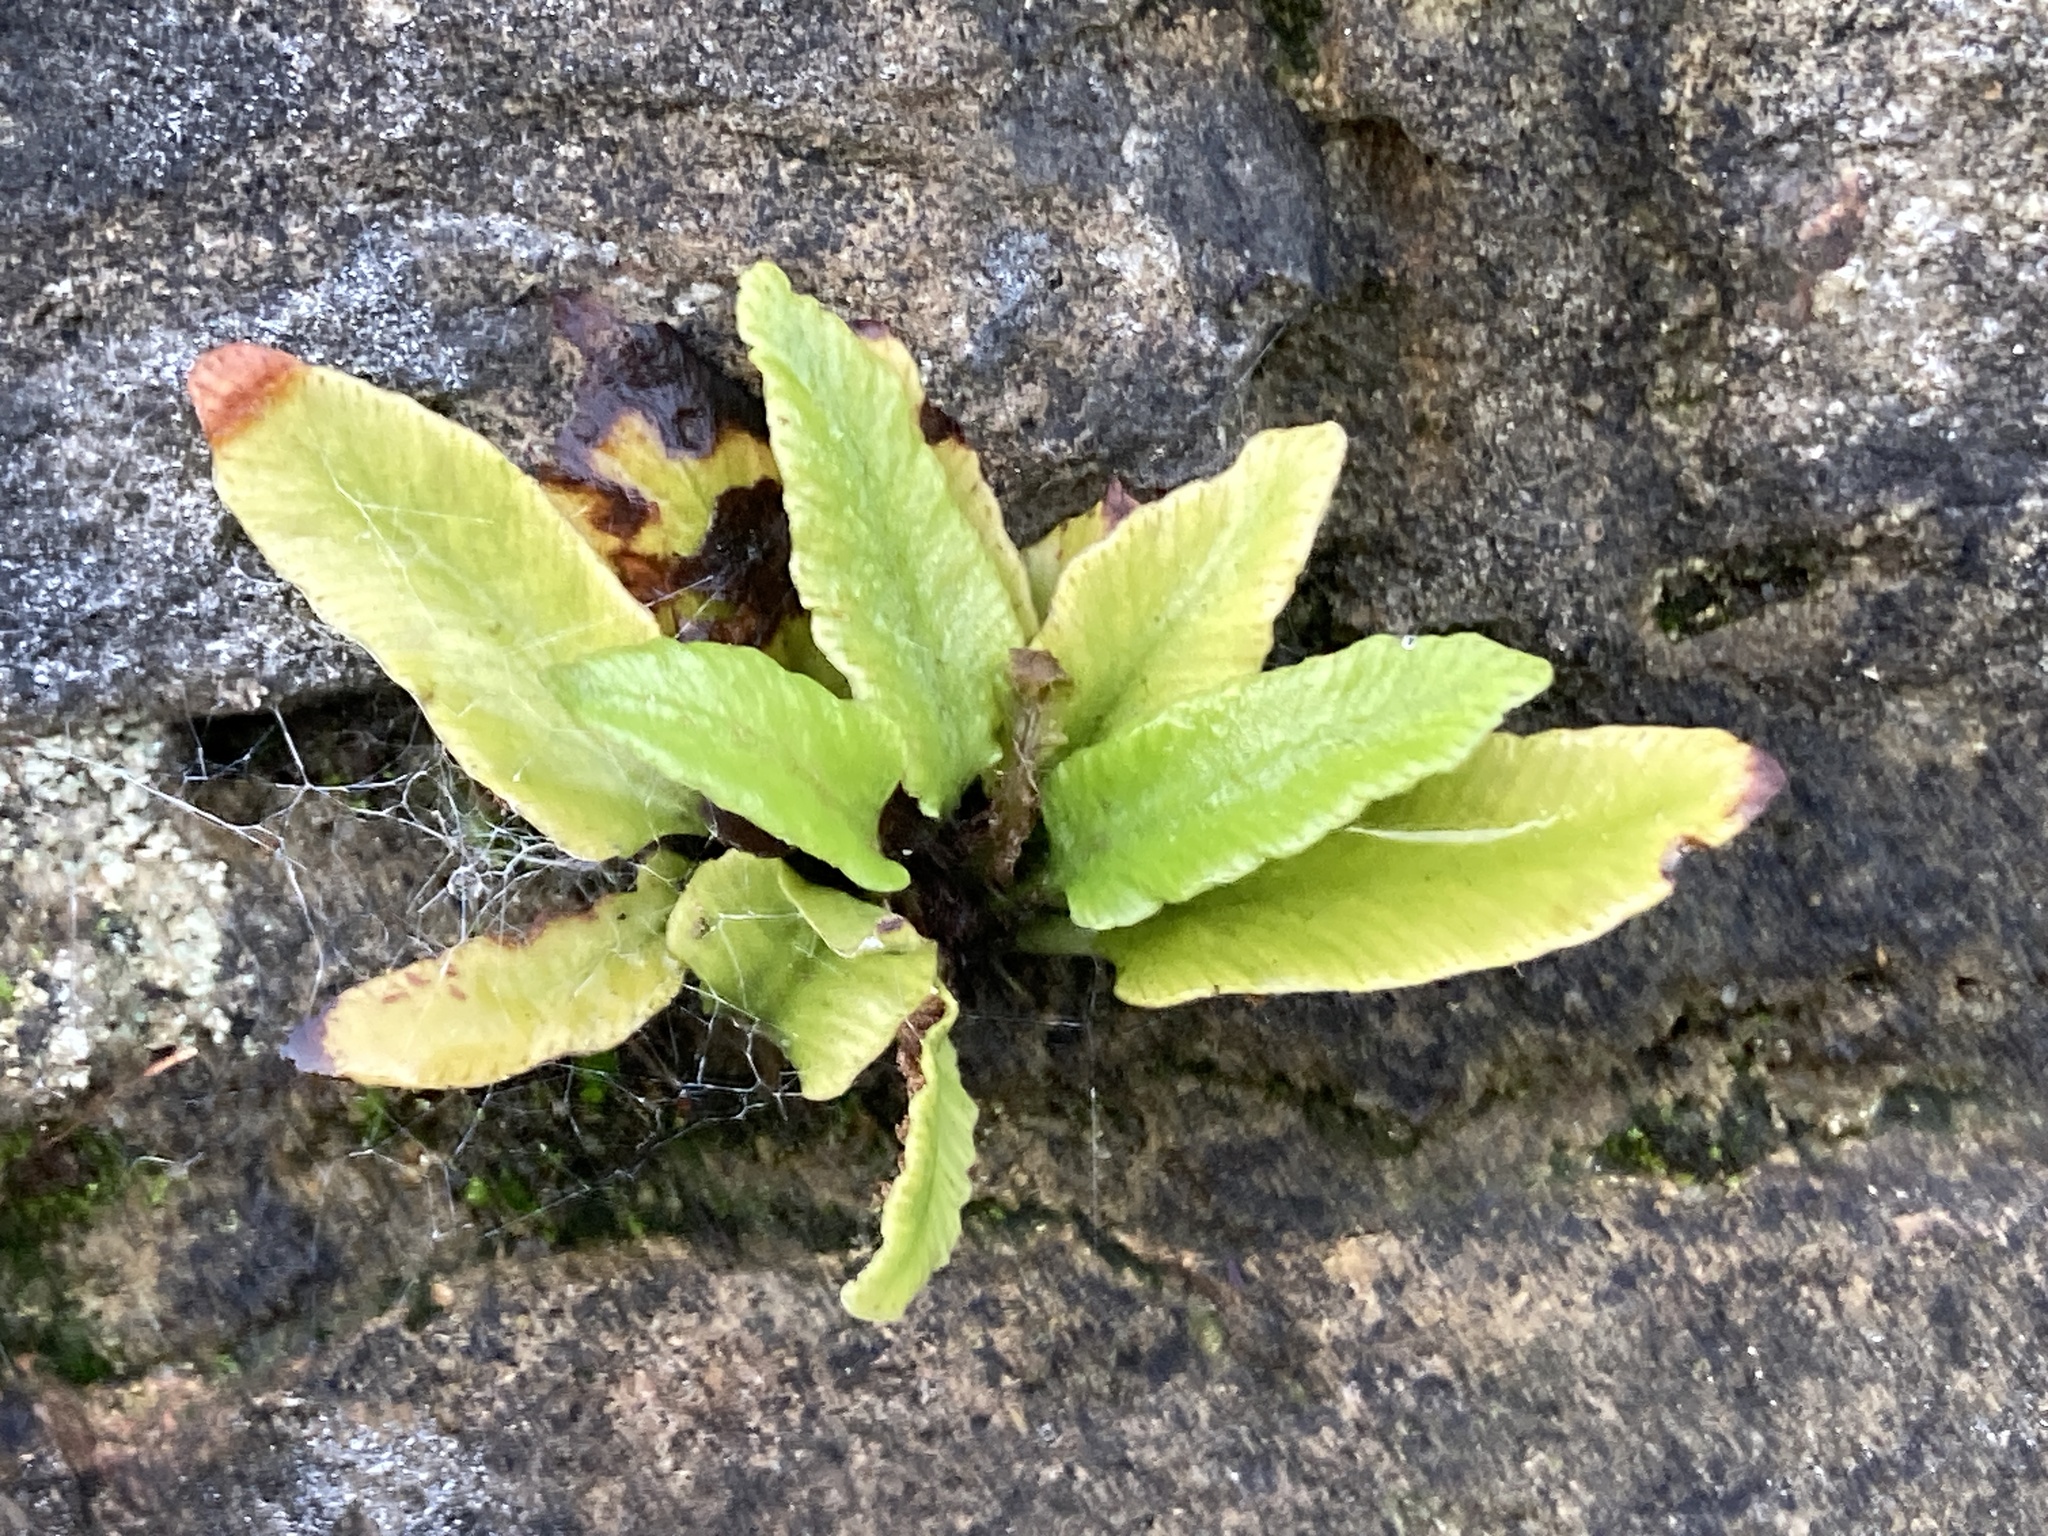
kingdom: Plantae
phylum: Tracheophyta
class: Polypodiopsida
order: Polypodiales
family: Aspleniaceae
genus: Asplenium
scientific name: Asplenium scolopendrium
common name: Hart's-tongue fern
